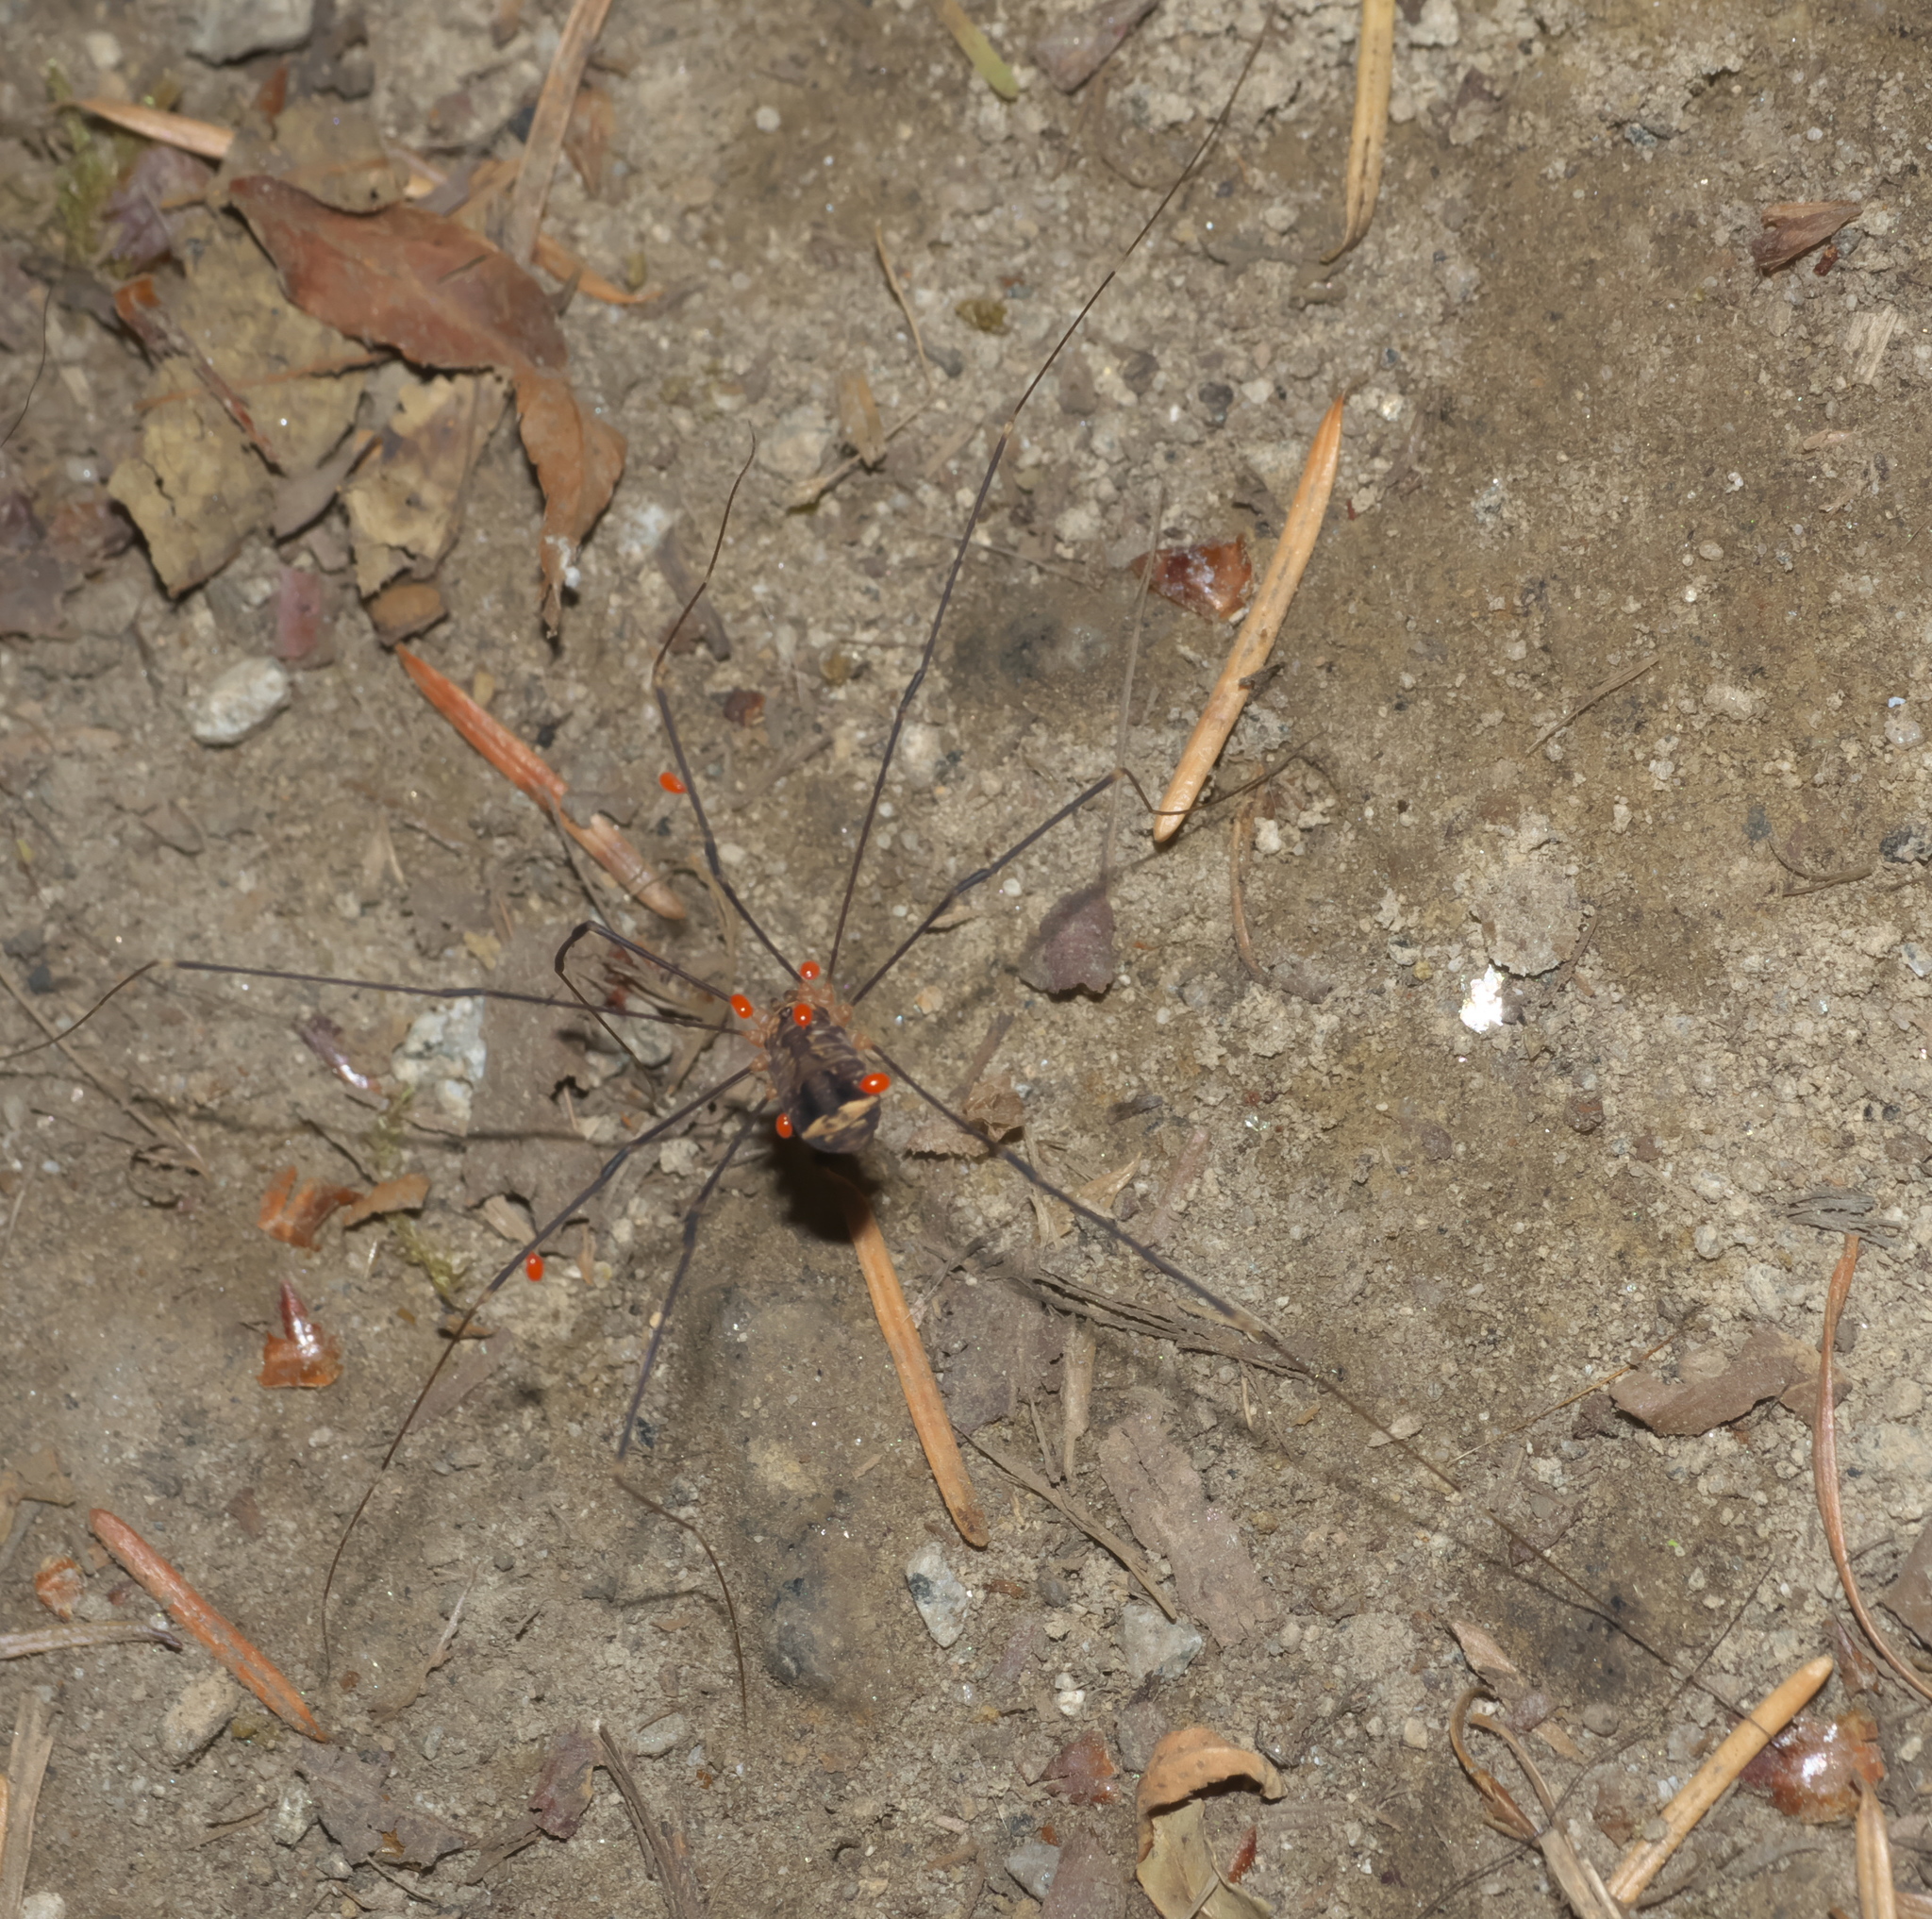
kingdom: Animalia
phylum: Arthropoda
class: Arachnida
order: Opiliones
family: Sclerosomatidae
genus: Nelima
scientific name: Nelima paessleri
